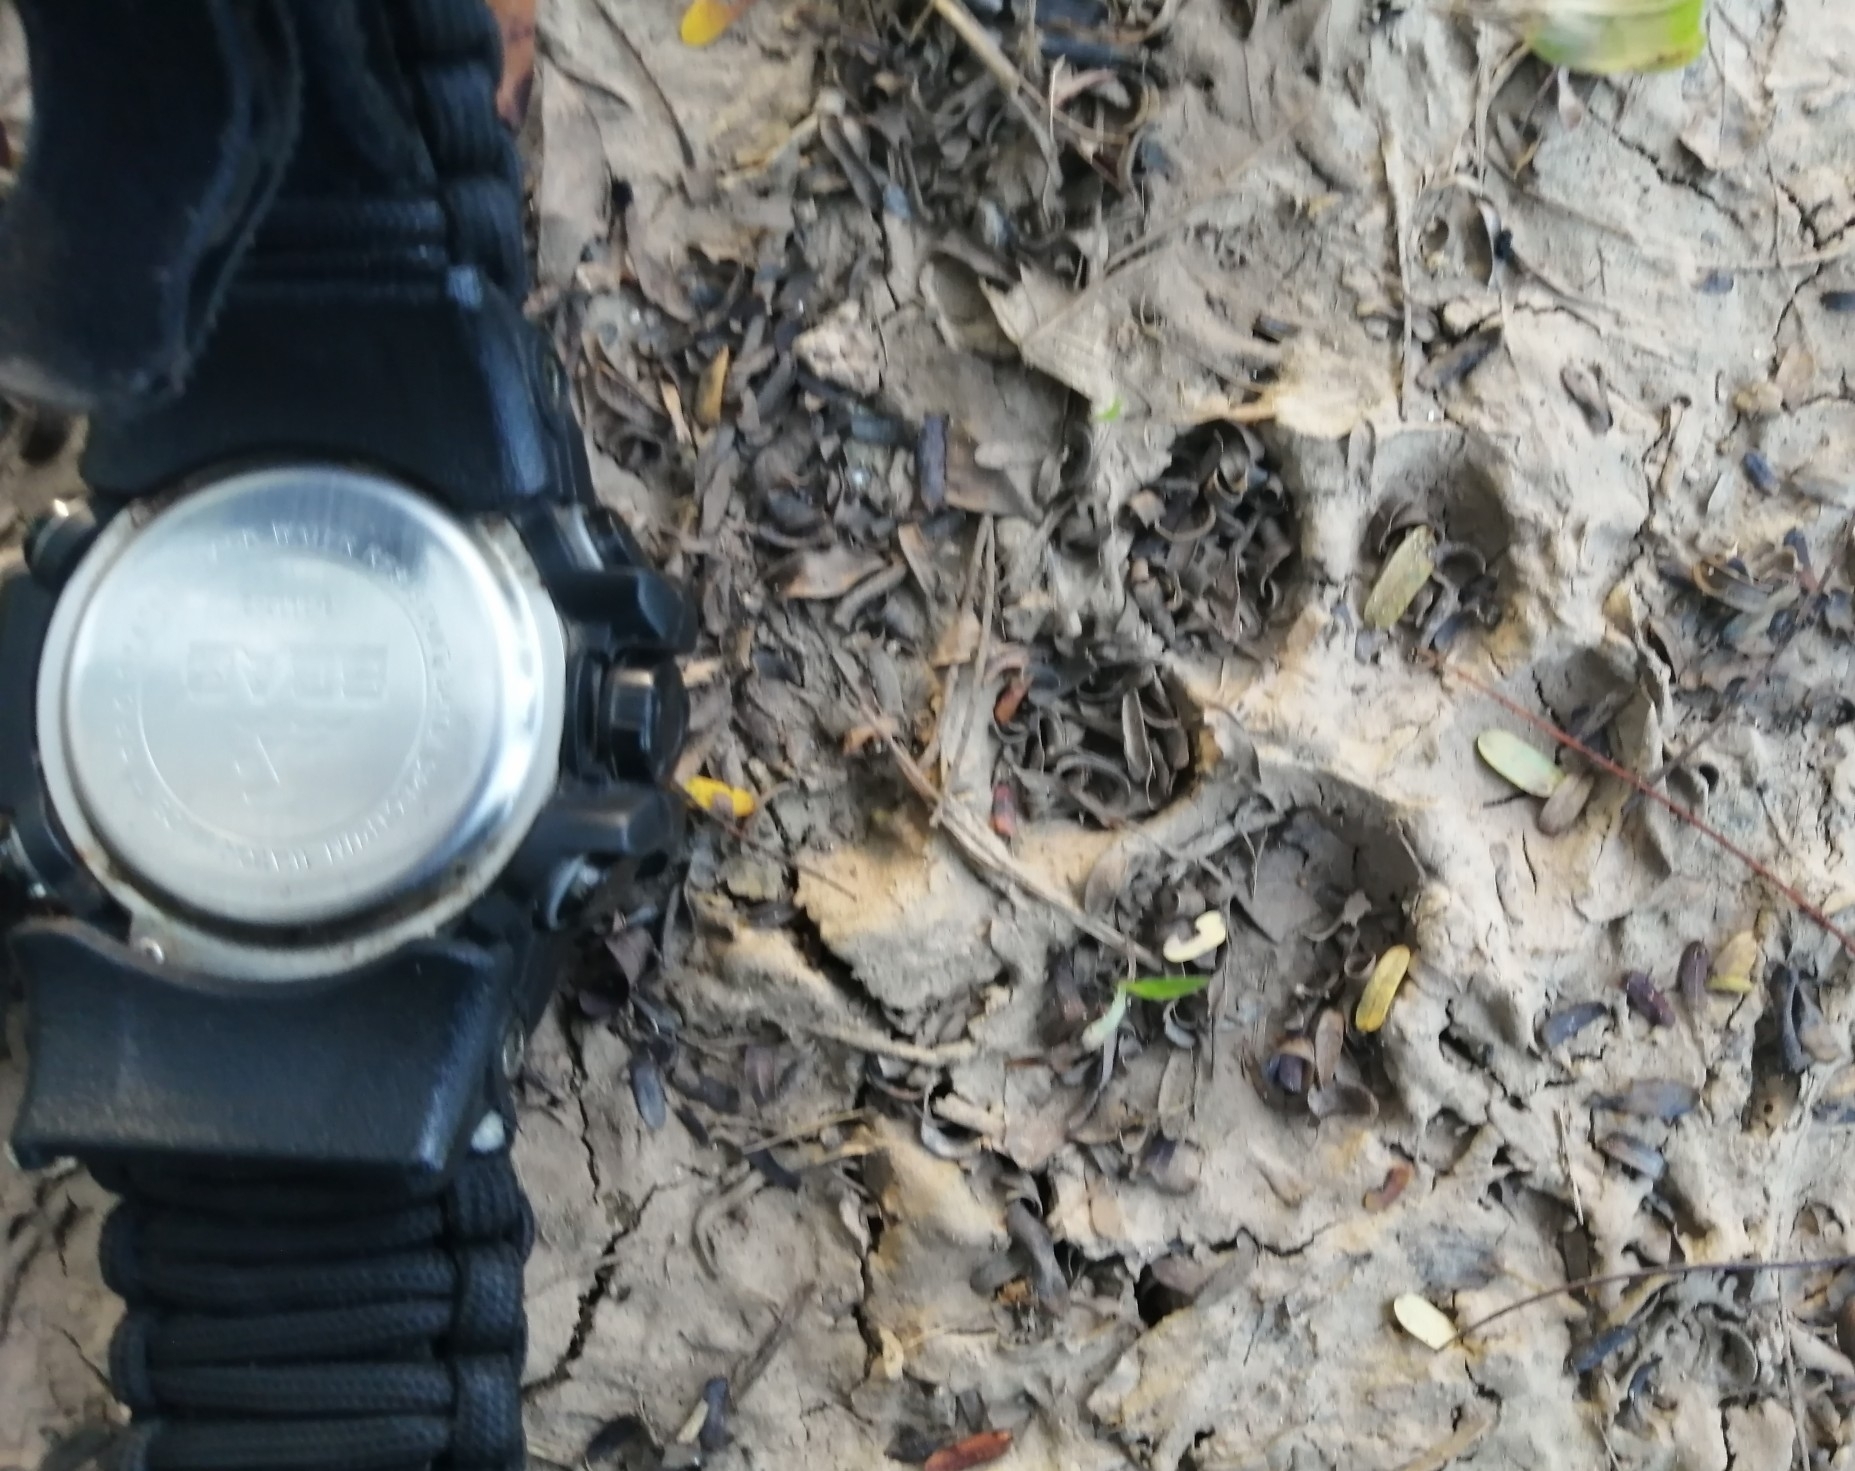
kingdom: Animalia
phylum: Chordata
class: Mammalia
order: Carnivora
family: Canidae
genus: Canis
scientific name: Canis lupus
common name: Gray wolf
